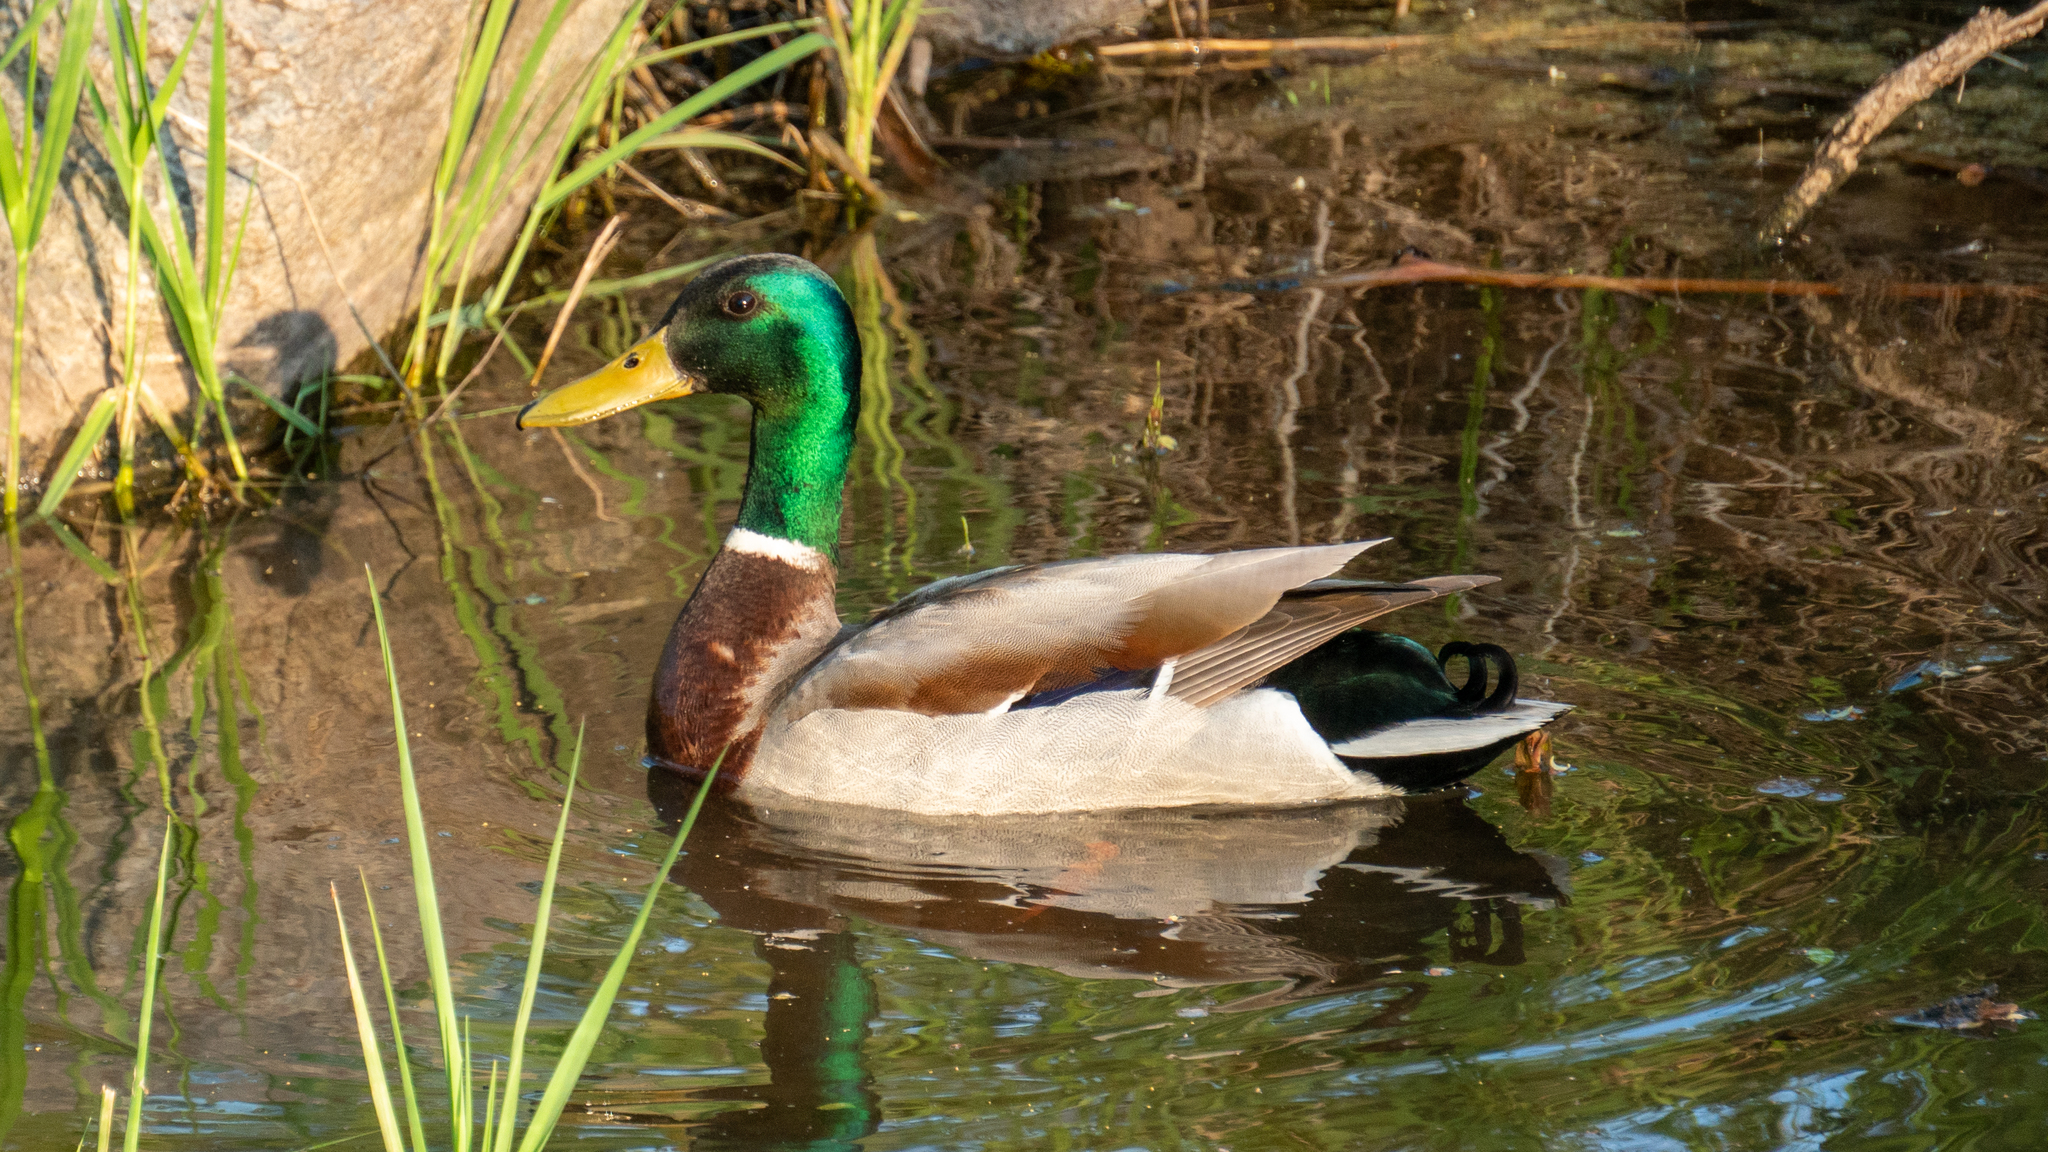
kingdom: Animalia
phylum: Chordata
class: Aves
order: Anseriformes
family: Anatidae
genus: Anas
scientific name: Anas platyrhynchos
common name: Mallard
